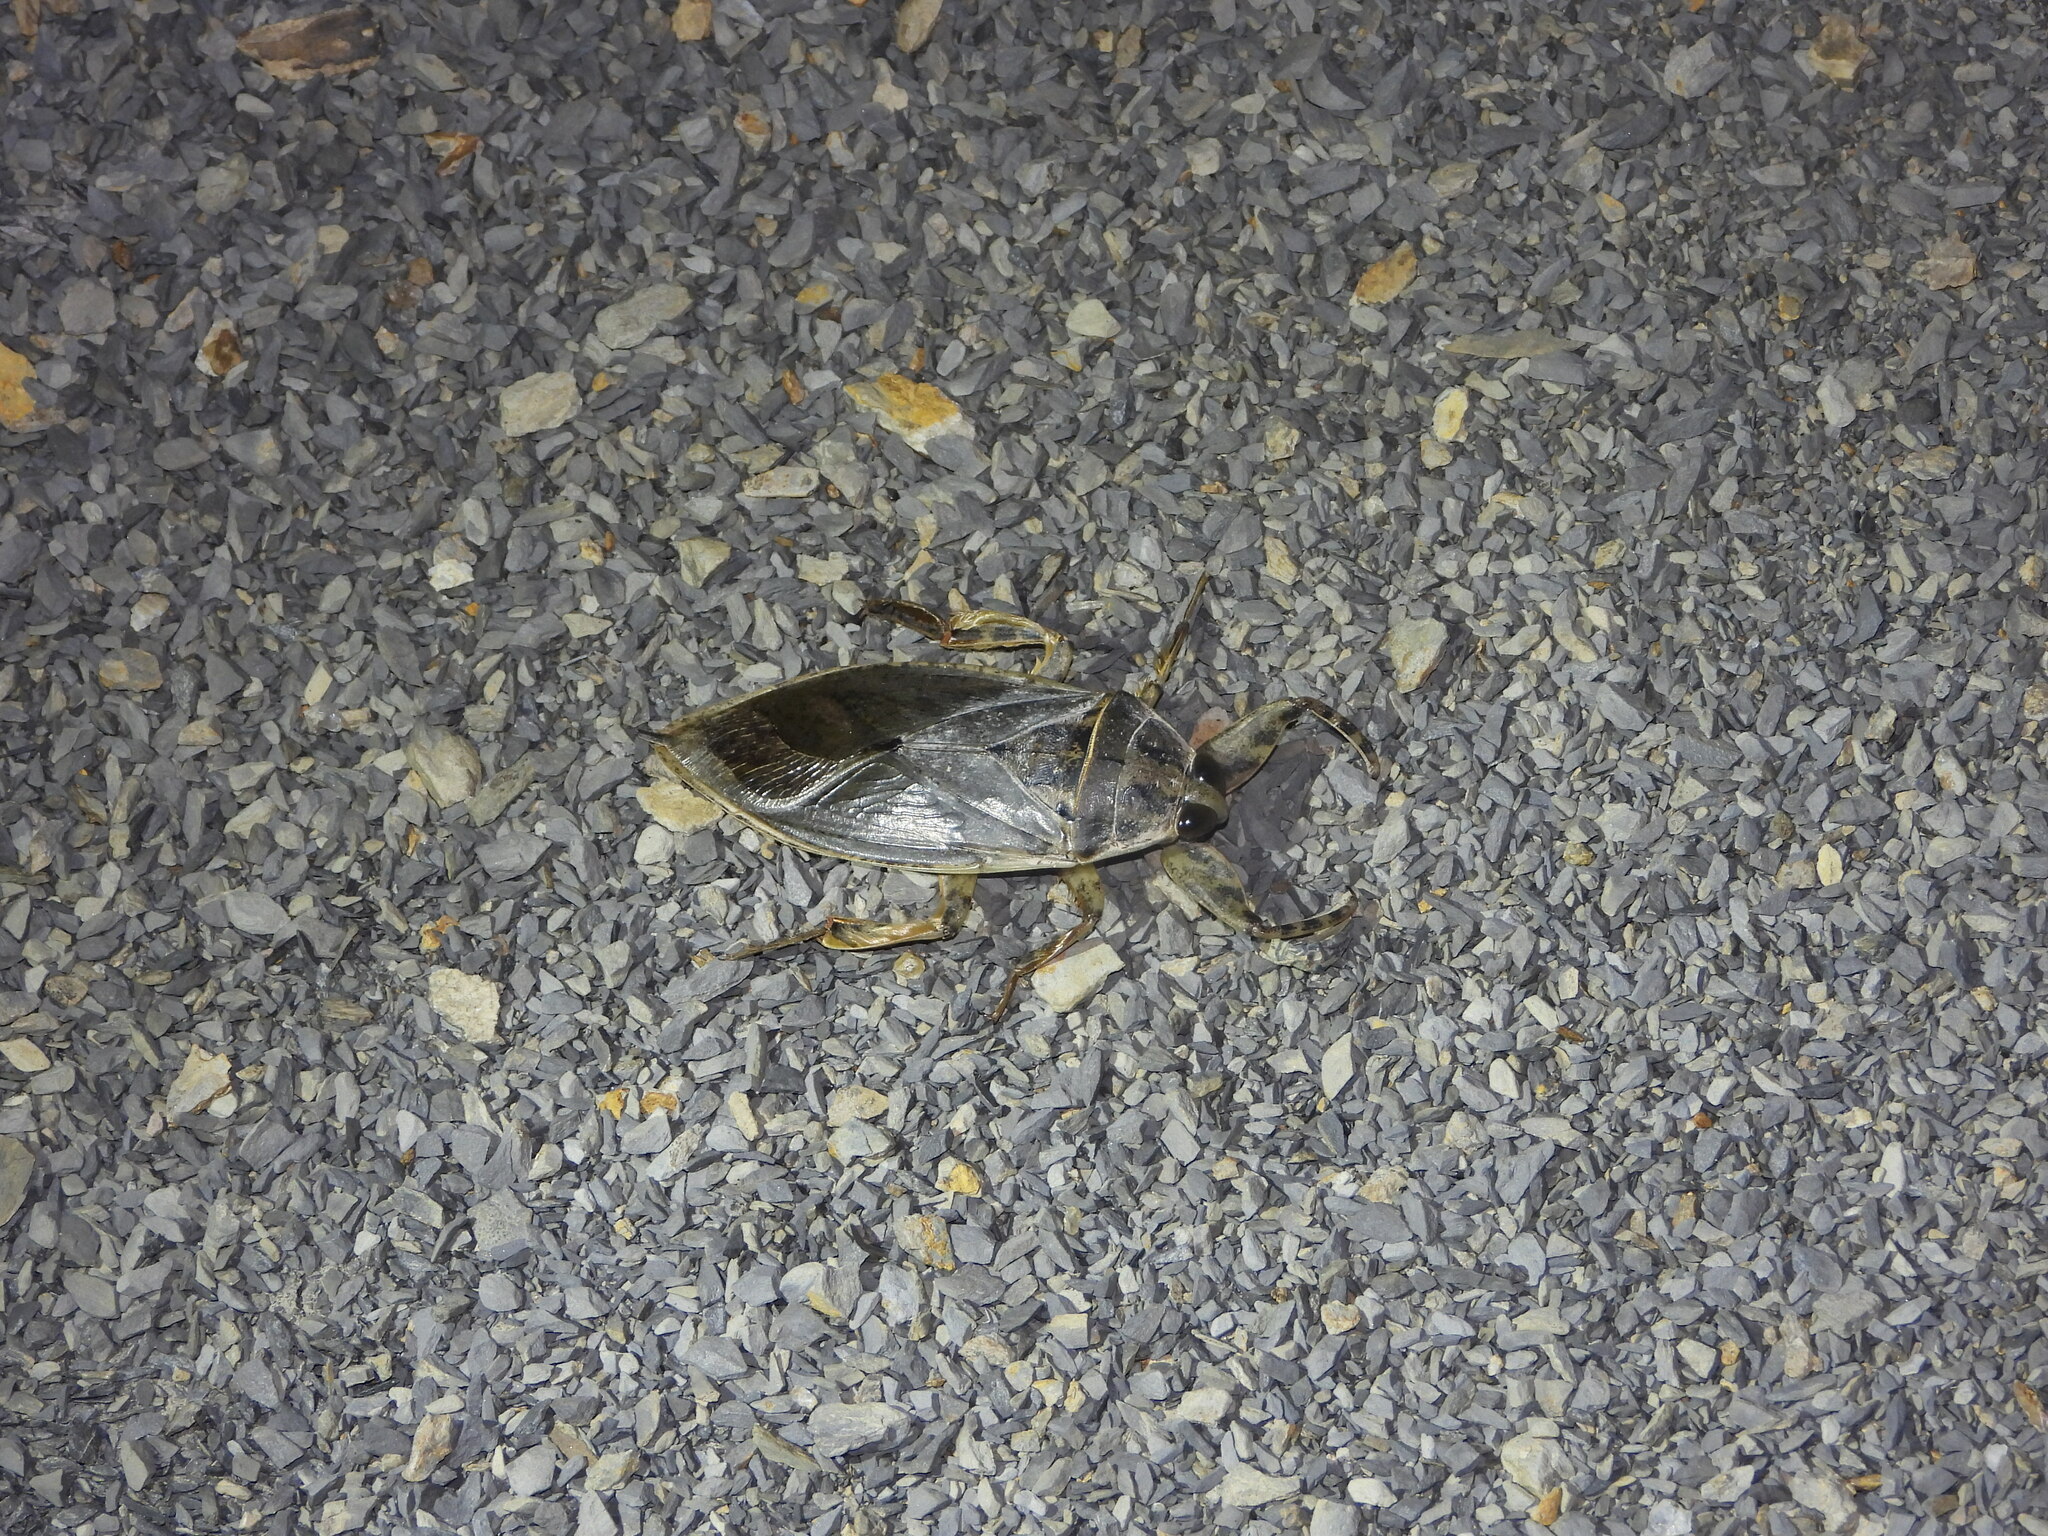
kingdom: Animalia
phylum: Arthropoda
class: Insecta
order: Hemiptera
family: Belostomatidae
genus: Lethocerus
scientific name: Lethocerus medius
